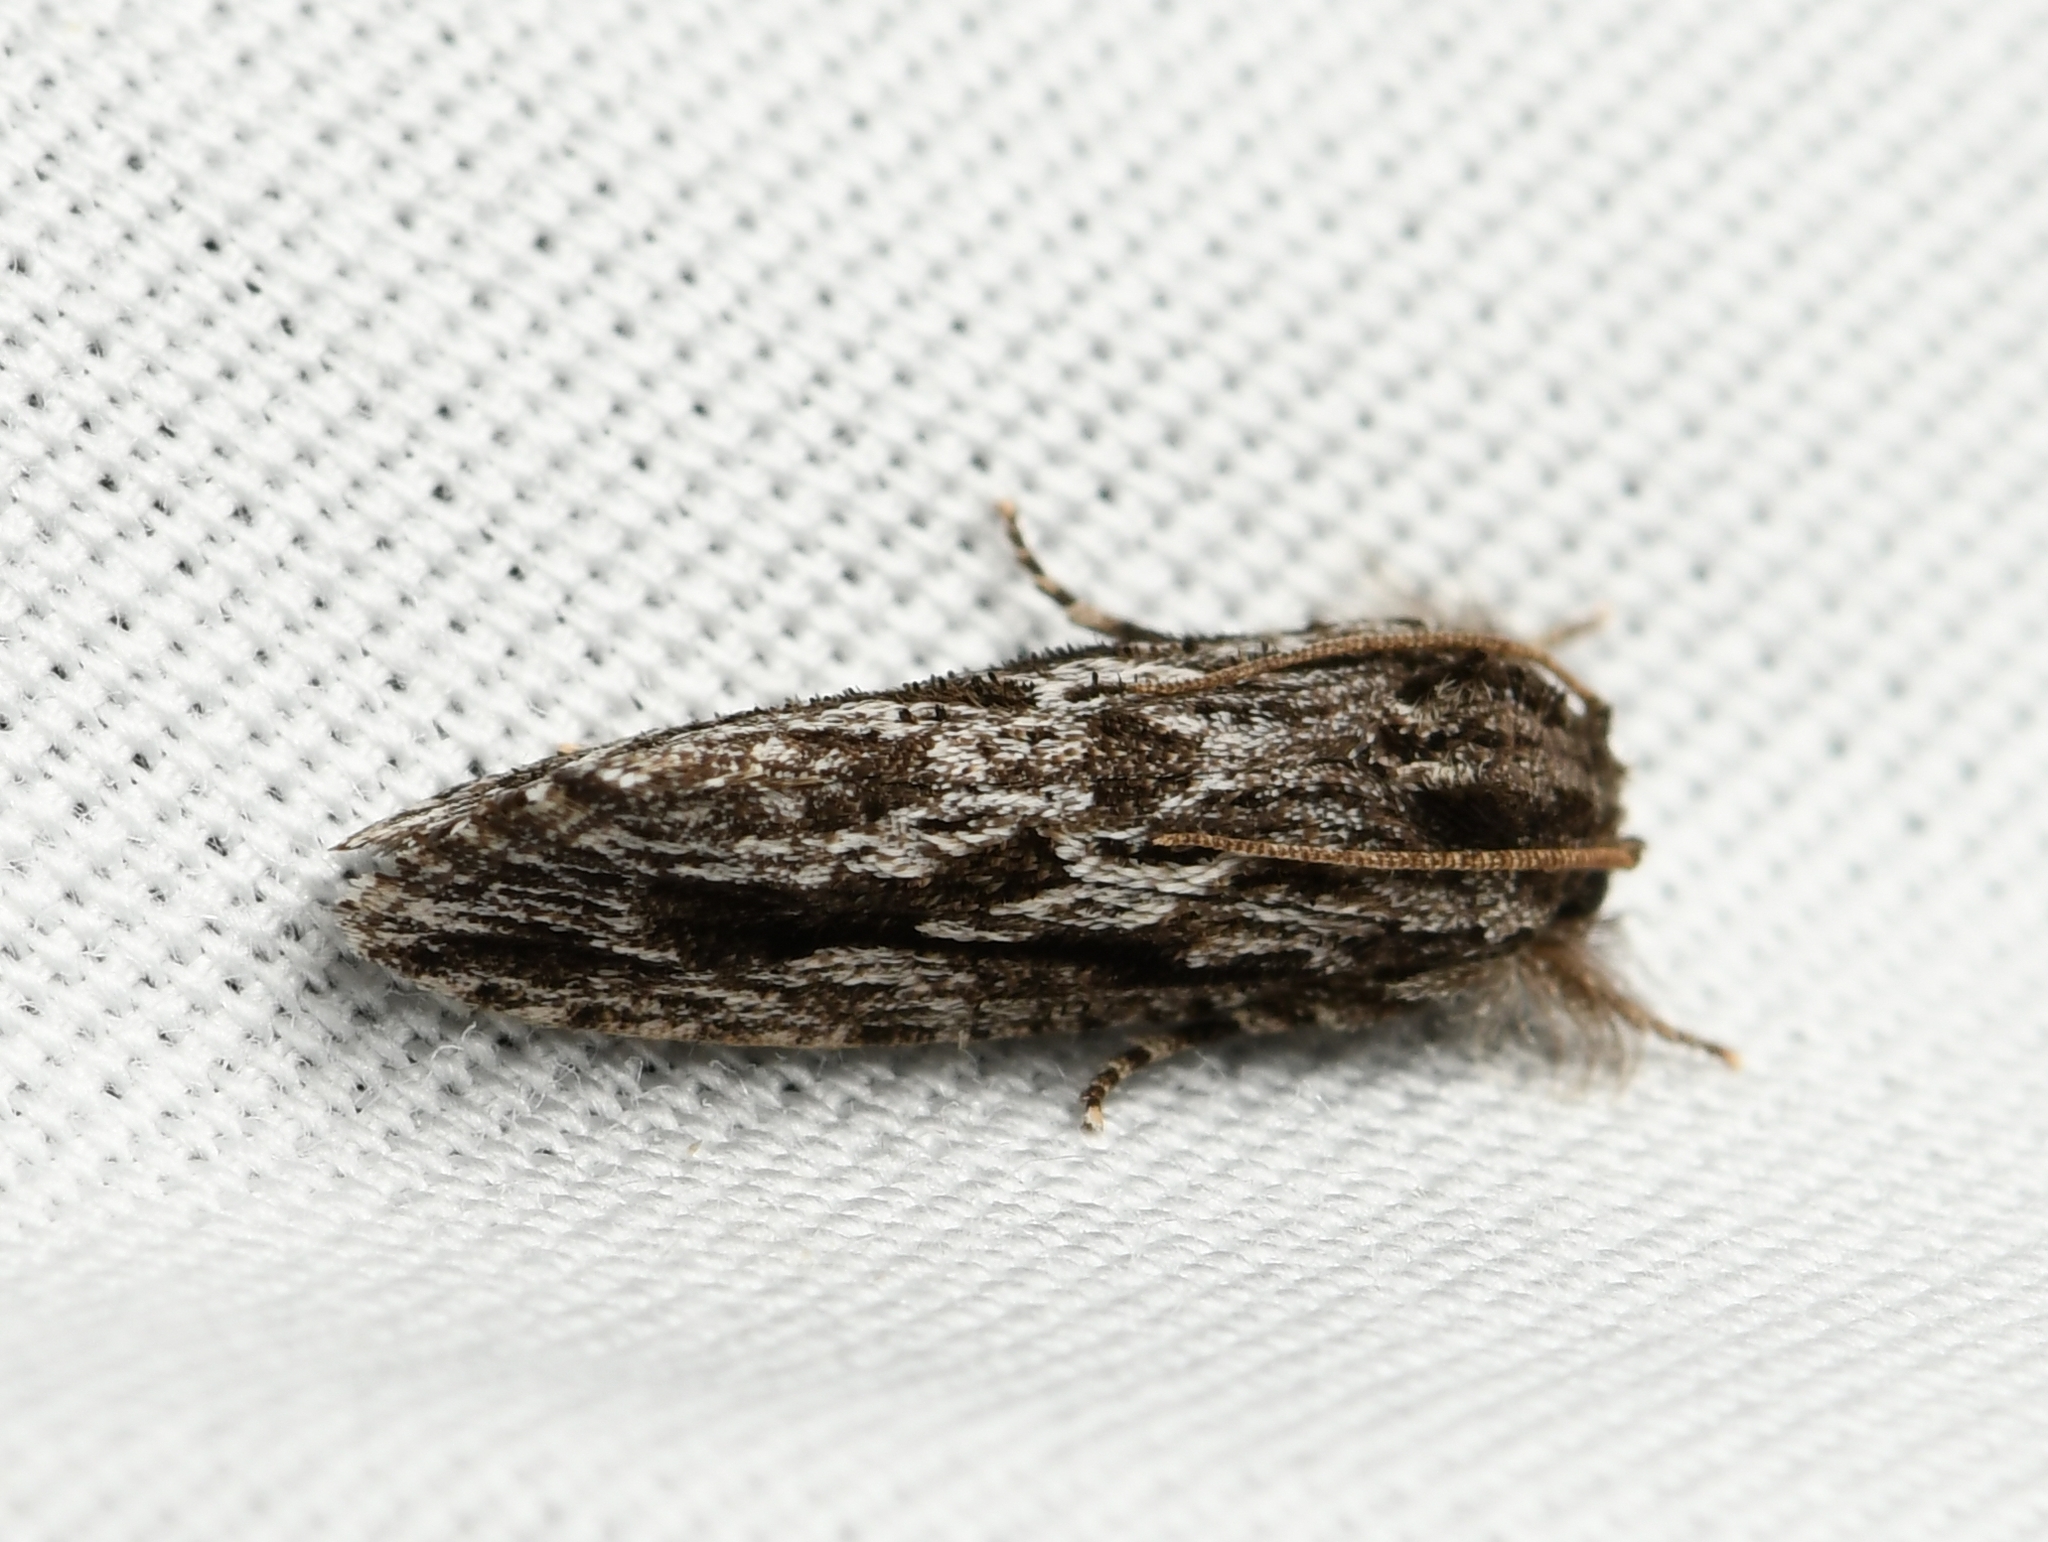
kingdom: Animalia
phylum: Arthropoda
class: Insecta
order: Lepidoptera
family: Tineidae
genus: Acrolophus
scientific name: Acrolophus furcatus
